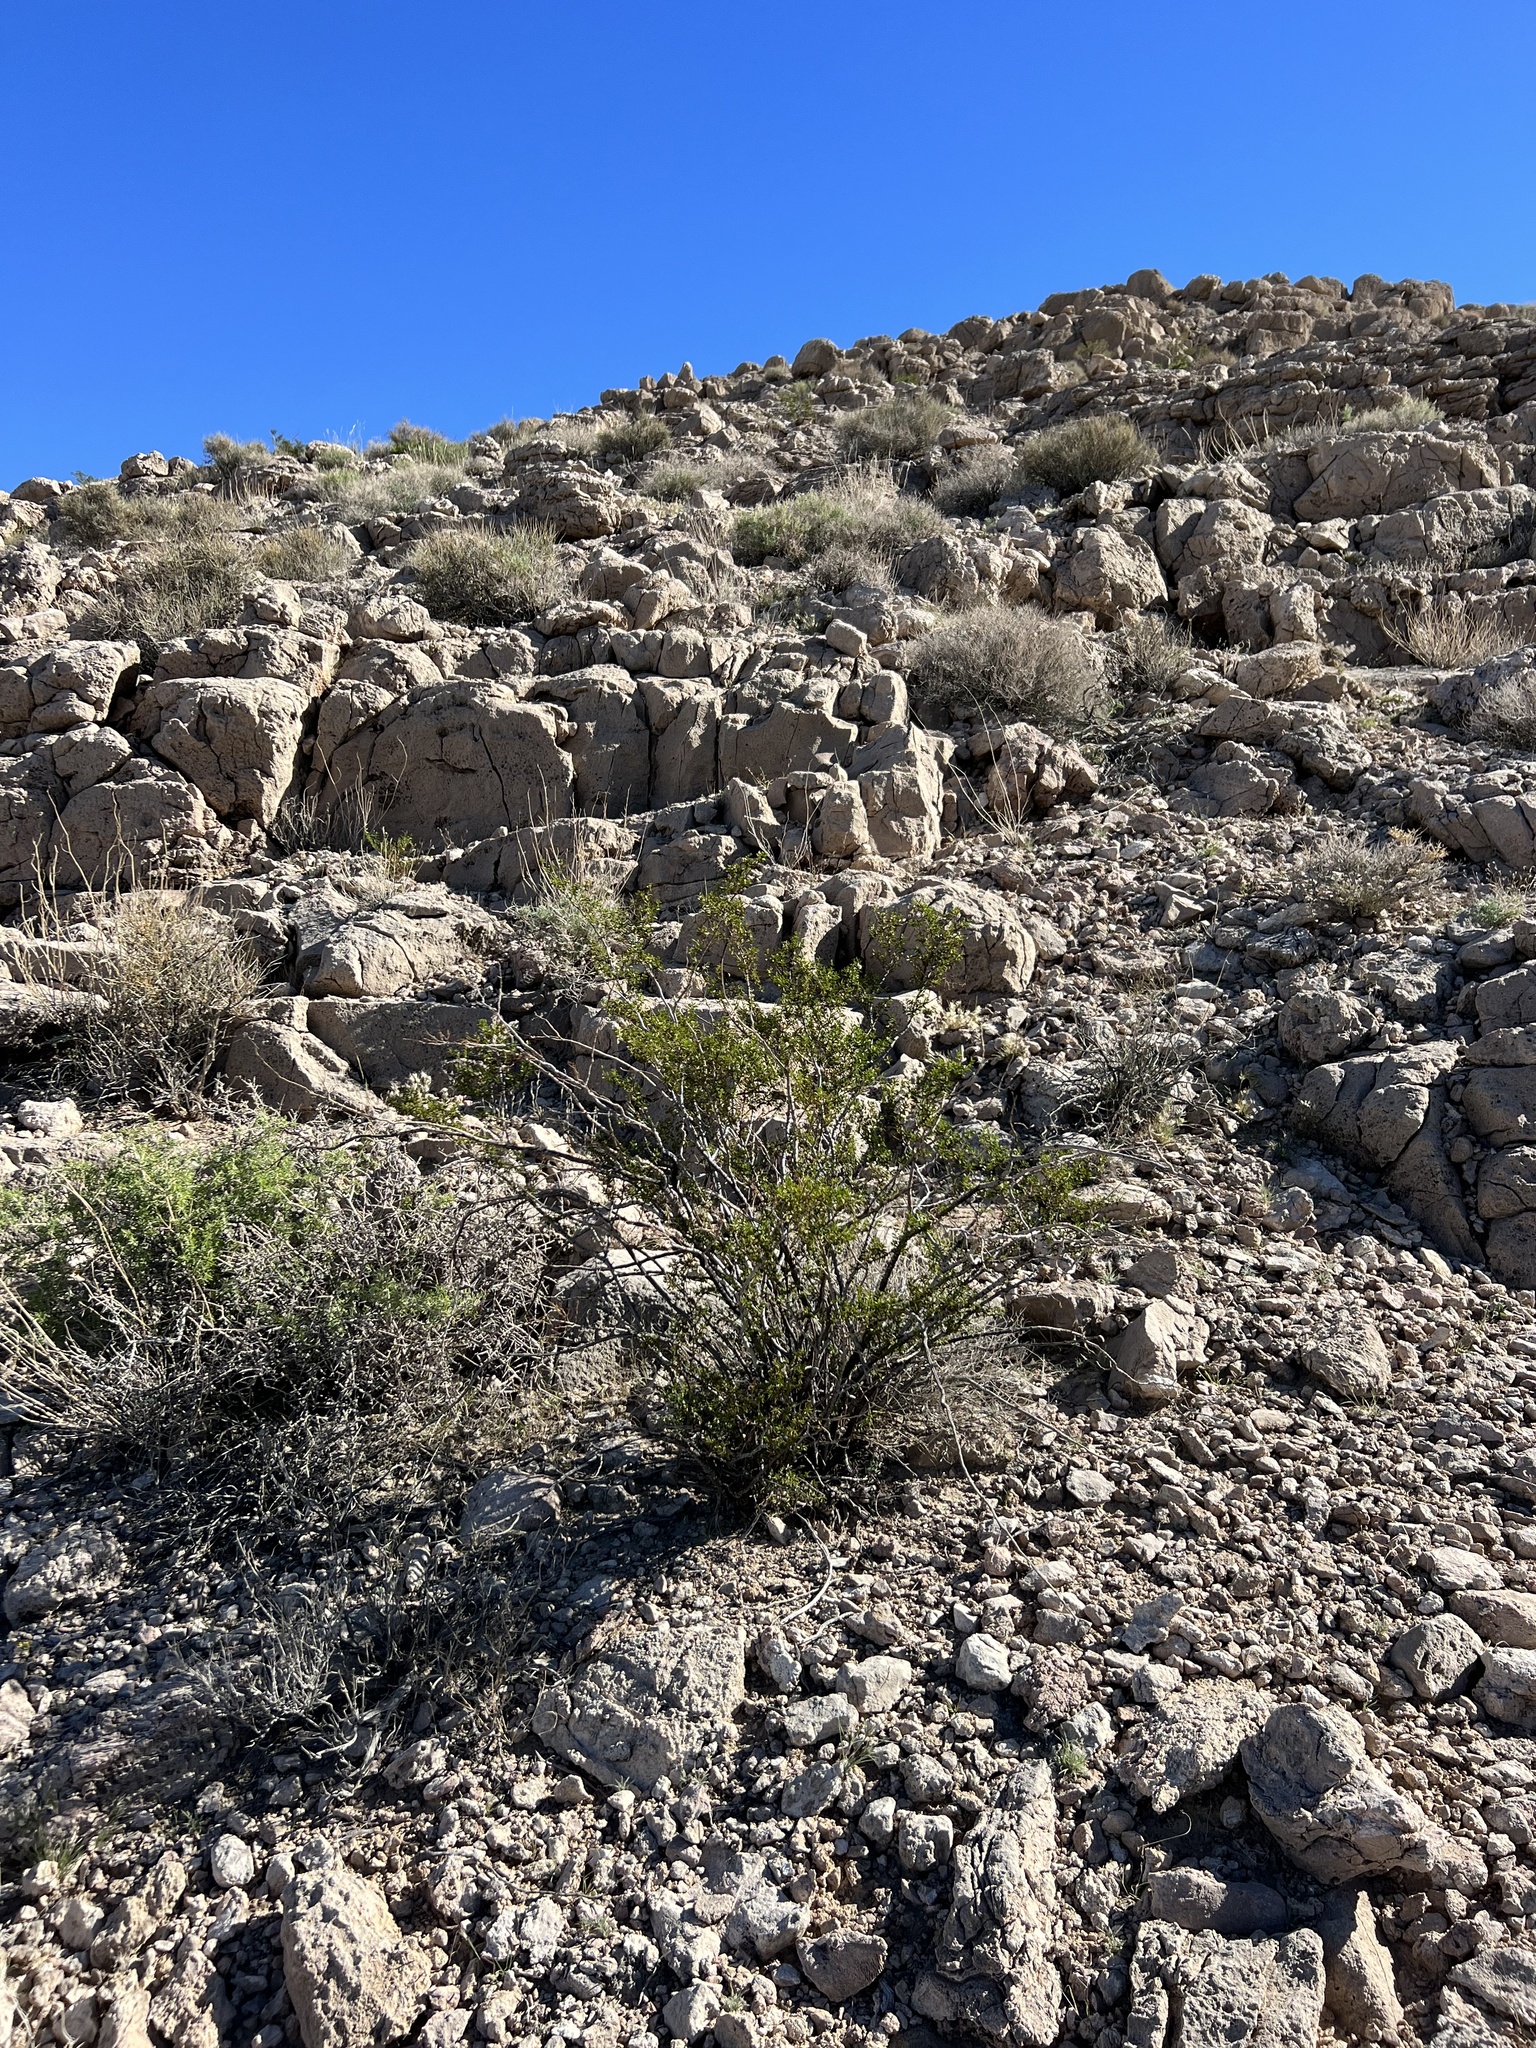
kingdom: Plantae
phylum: Tracheophyta
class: Magnoliopsida
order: Zygophyllales
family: Zygophyllaceae
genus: Larrea
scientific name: Larrea tridentata
